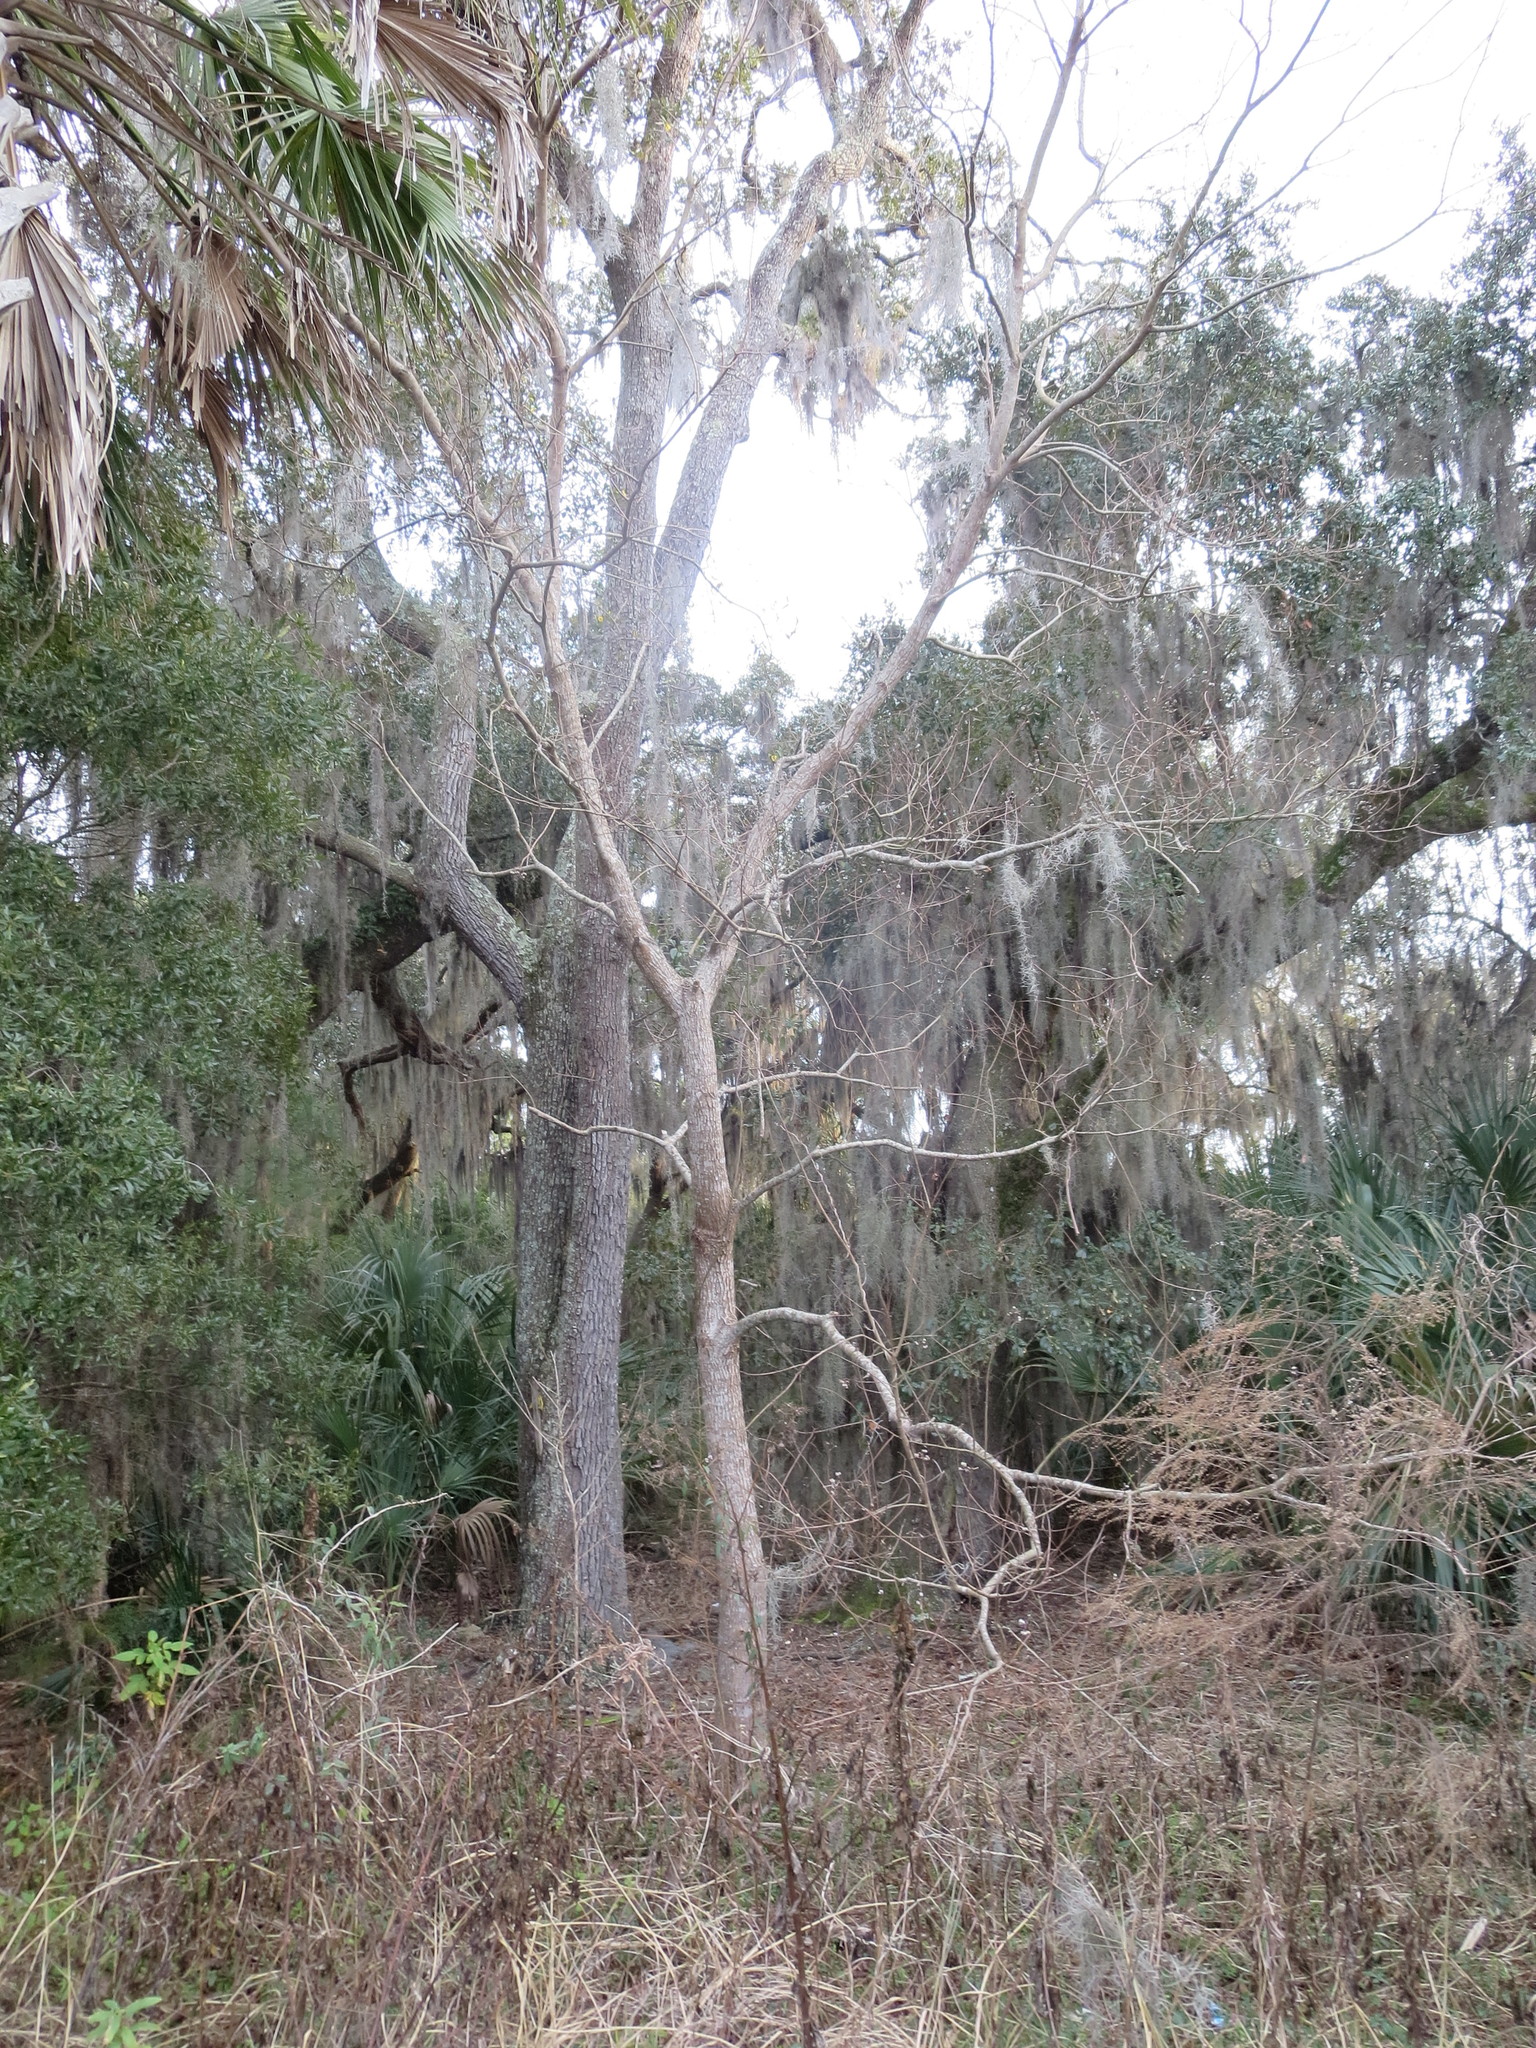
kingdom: Plantae
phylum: Tracheophyta
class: Magnoliopsida
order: Malpighiales
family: Euphorbiaceae
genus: Triadica
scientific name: Triadica sebifera
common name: Chinese tallow
